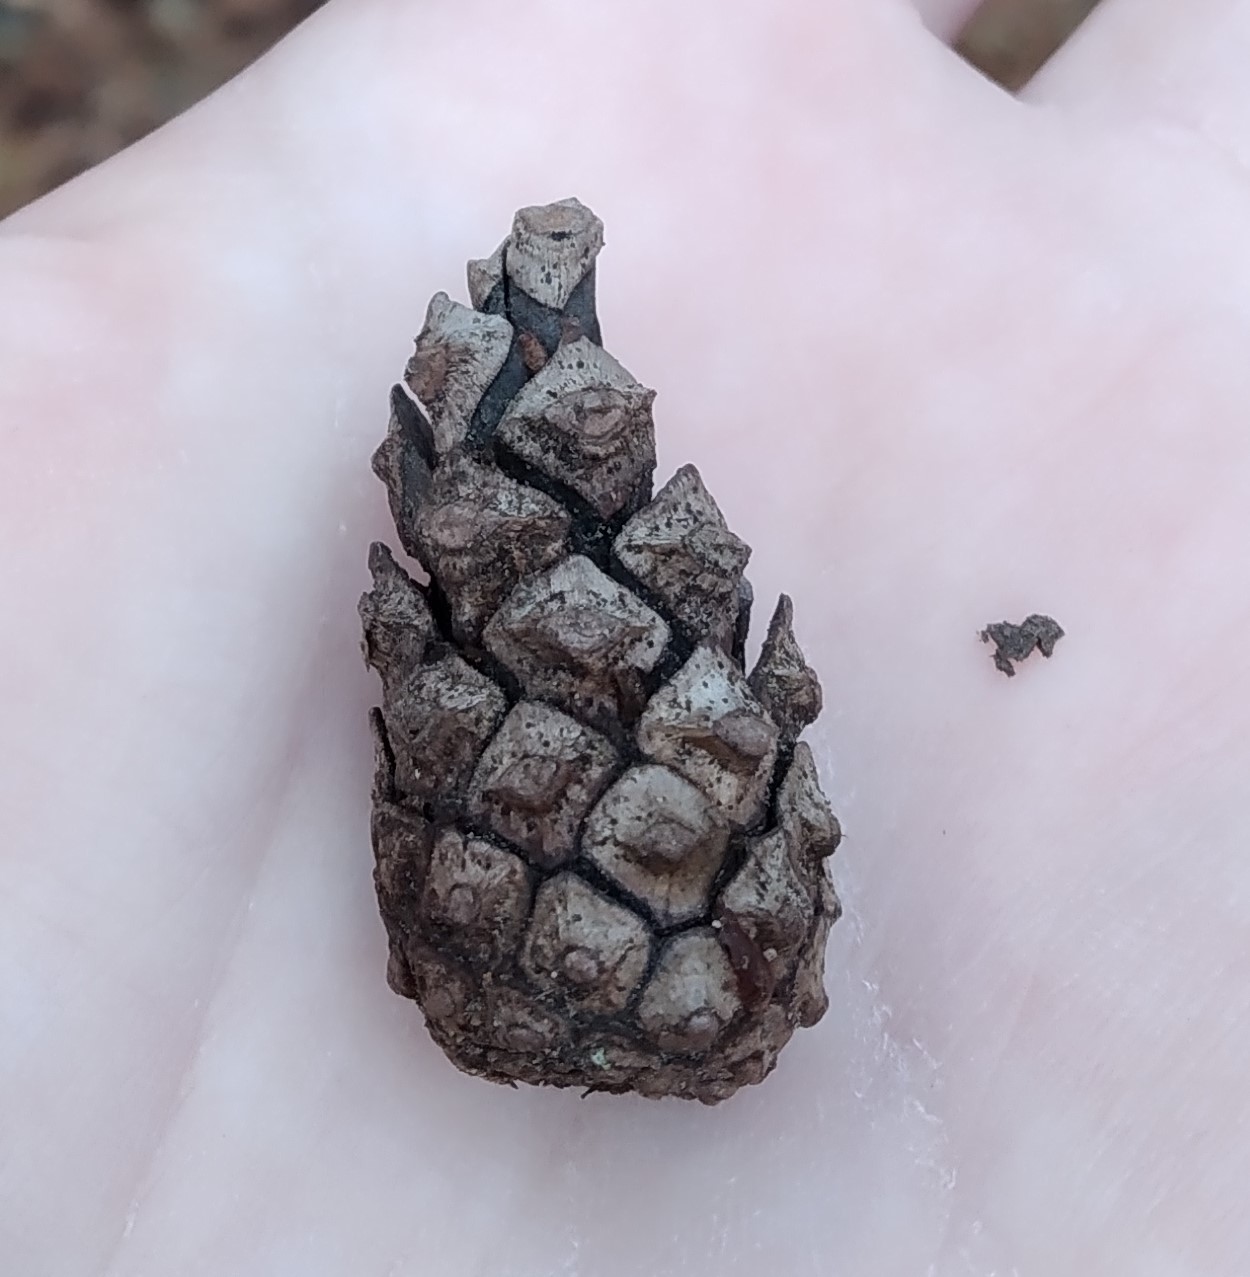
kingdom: Plantae
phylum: Tracheophyta
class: Pinopsida
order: Pinales
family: Pinaceae
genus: Pinus
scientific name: Pinus sylvestris
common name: Scots pine
